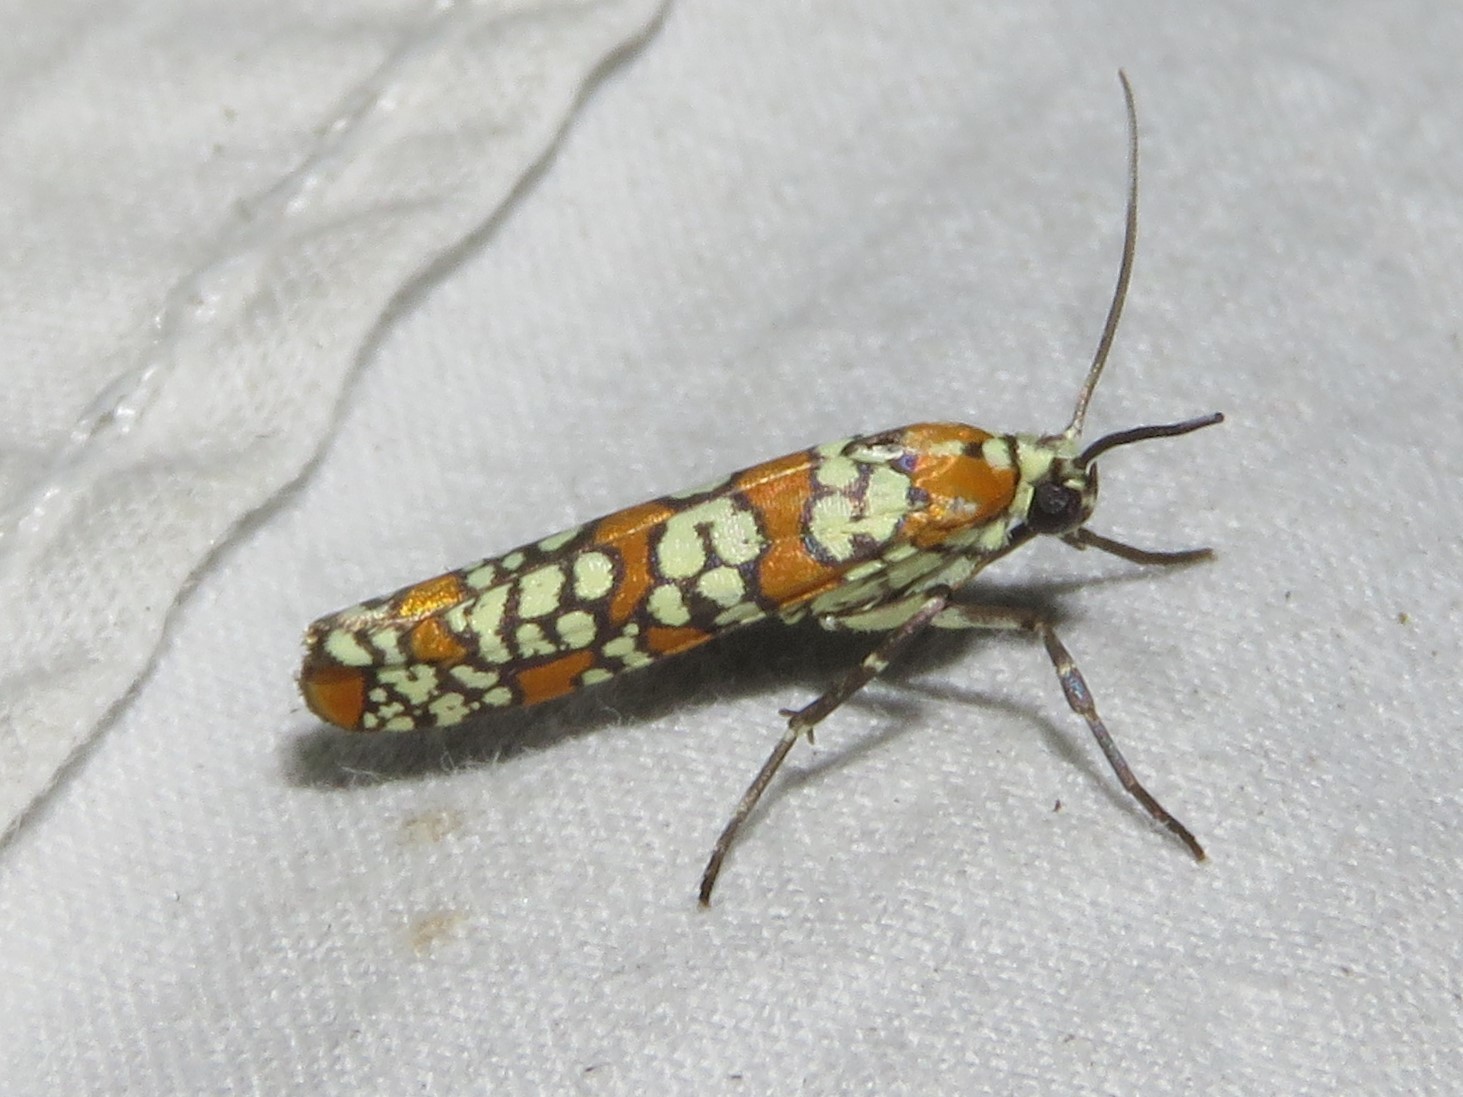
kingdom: Animalia
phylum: Arthropoda
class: Insecta
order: Lepidoptera
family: Attevidae
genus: Atteva
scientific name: Atteva punctella
